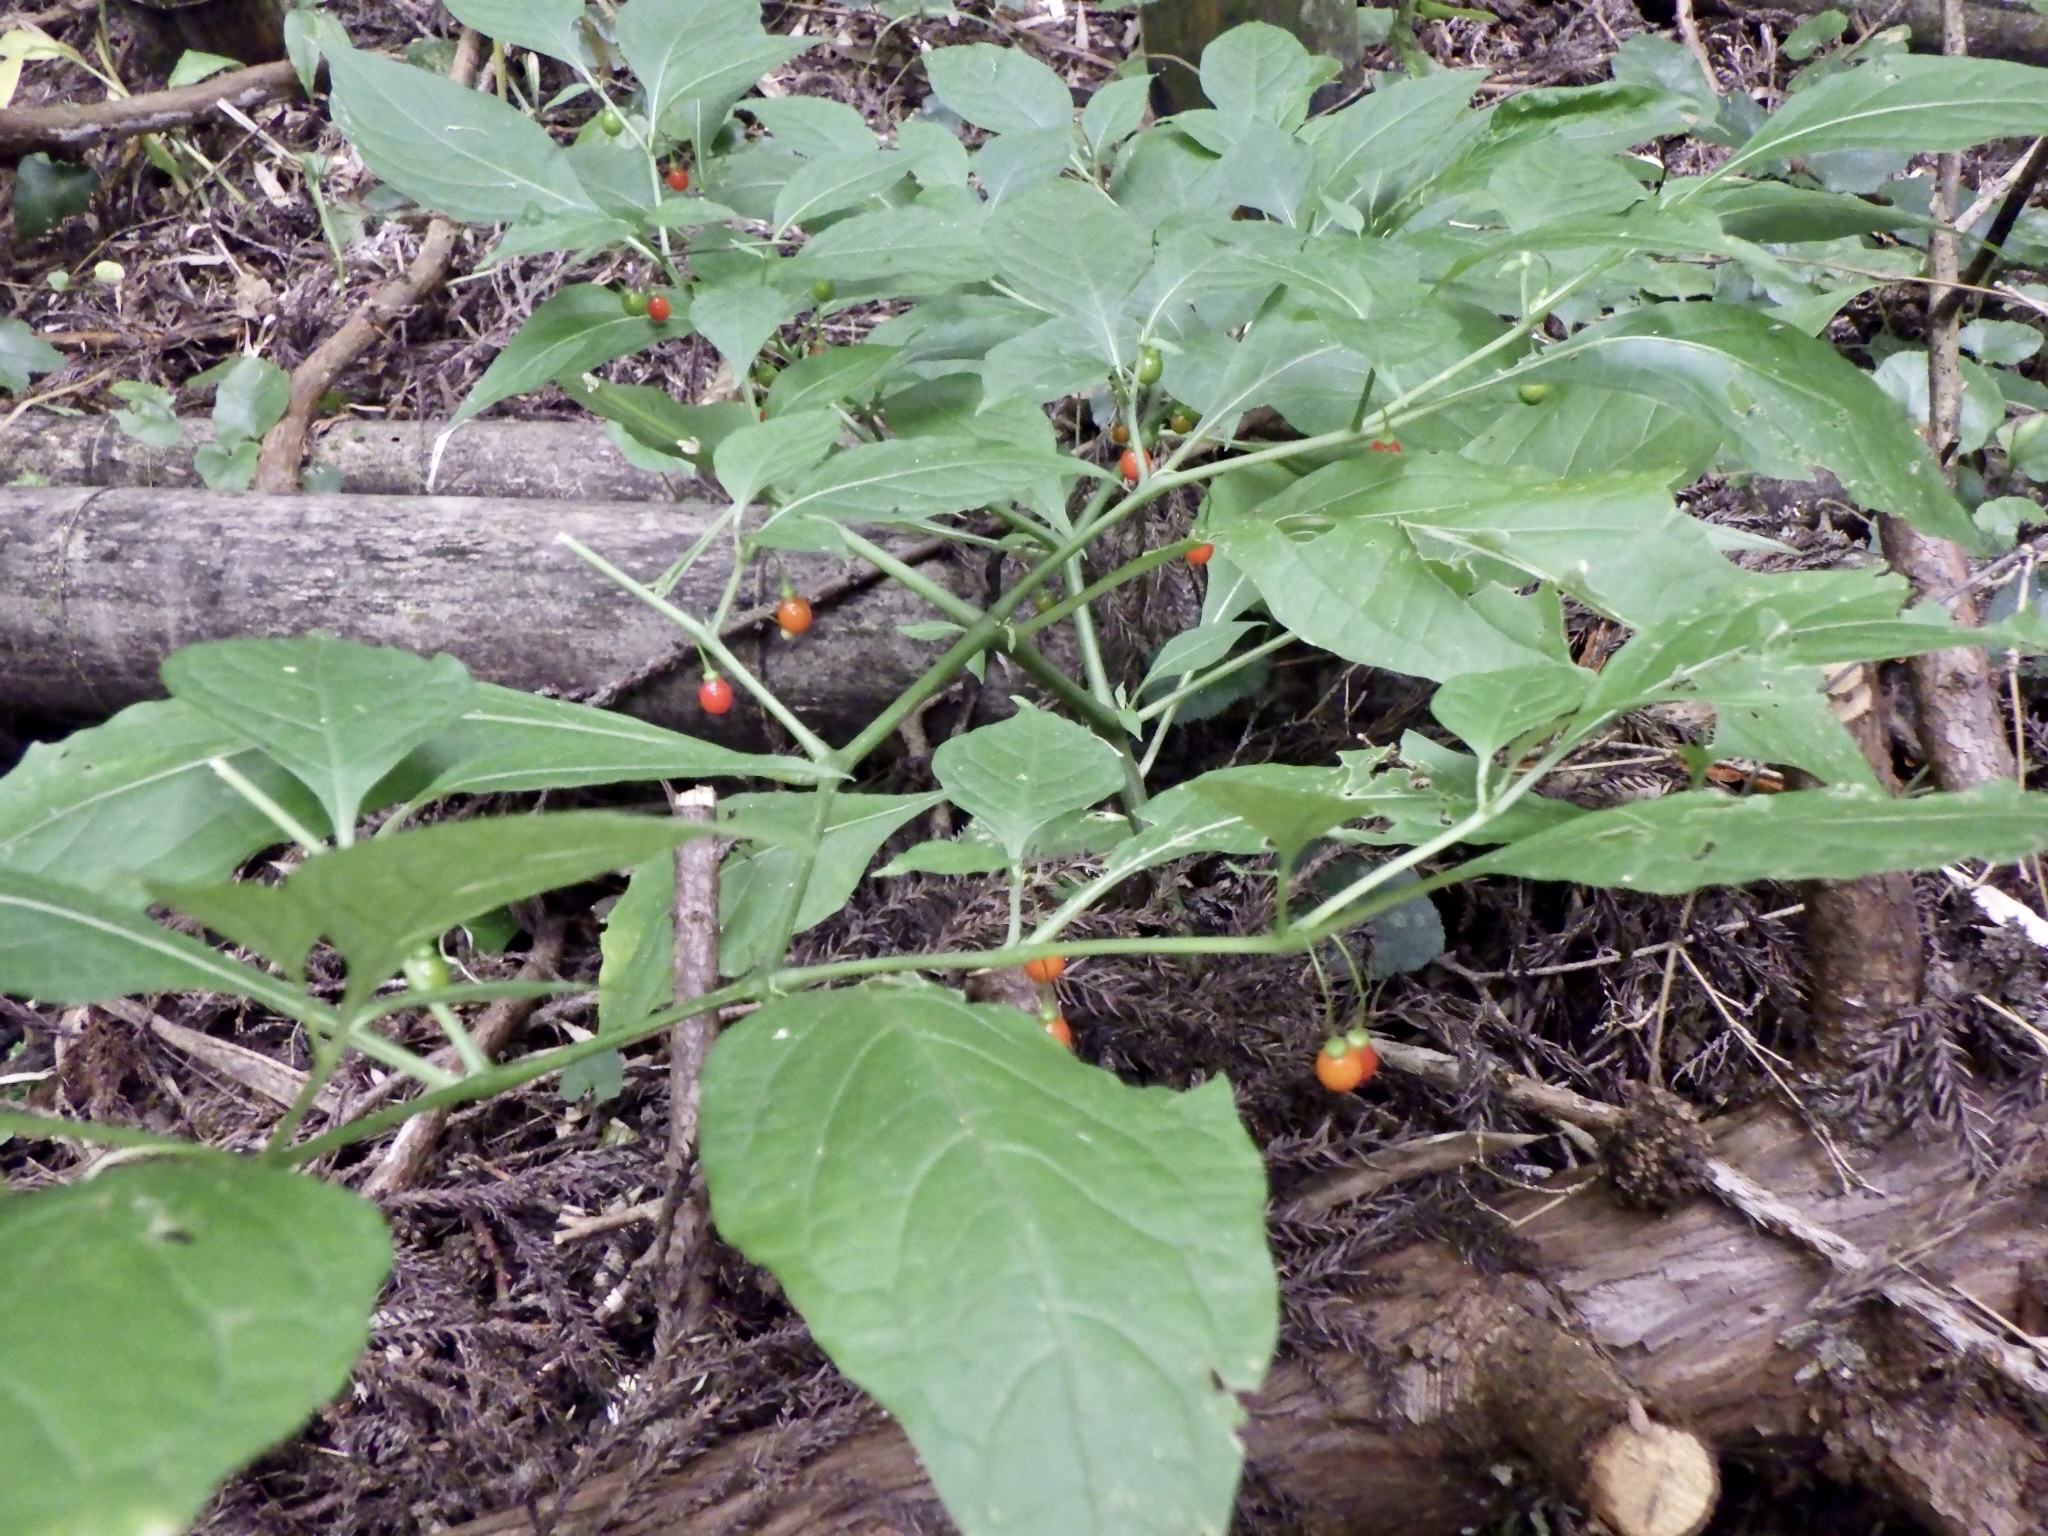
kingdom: Plantae
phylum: Tracheophyta
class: Magnoliopsida
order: Solanales
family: Solanaceae
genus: Tubocapsicum
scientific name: Tubocapsicum anomalum
